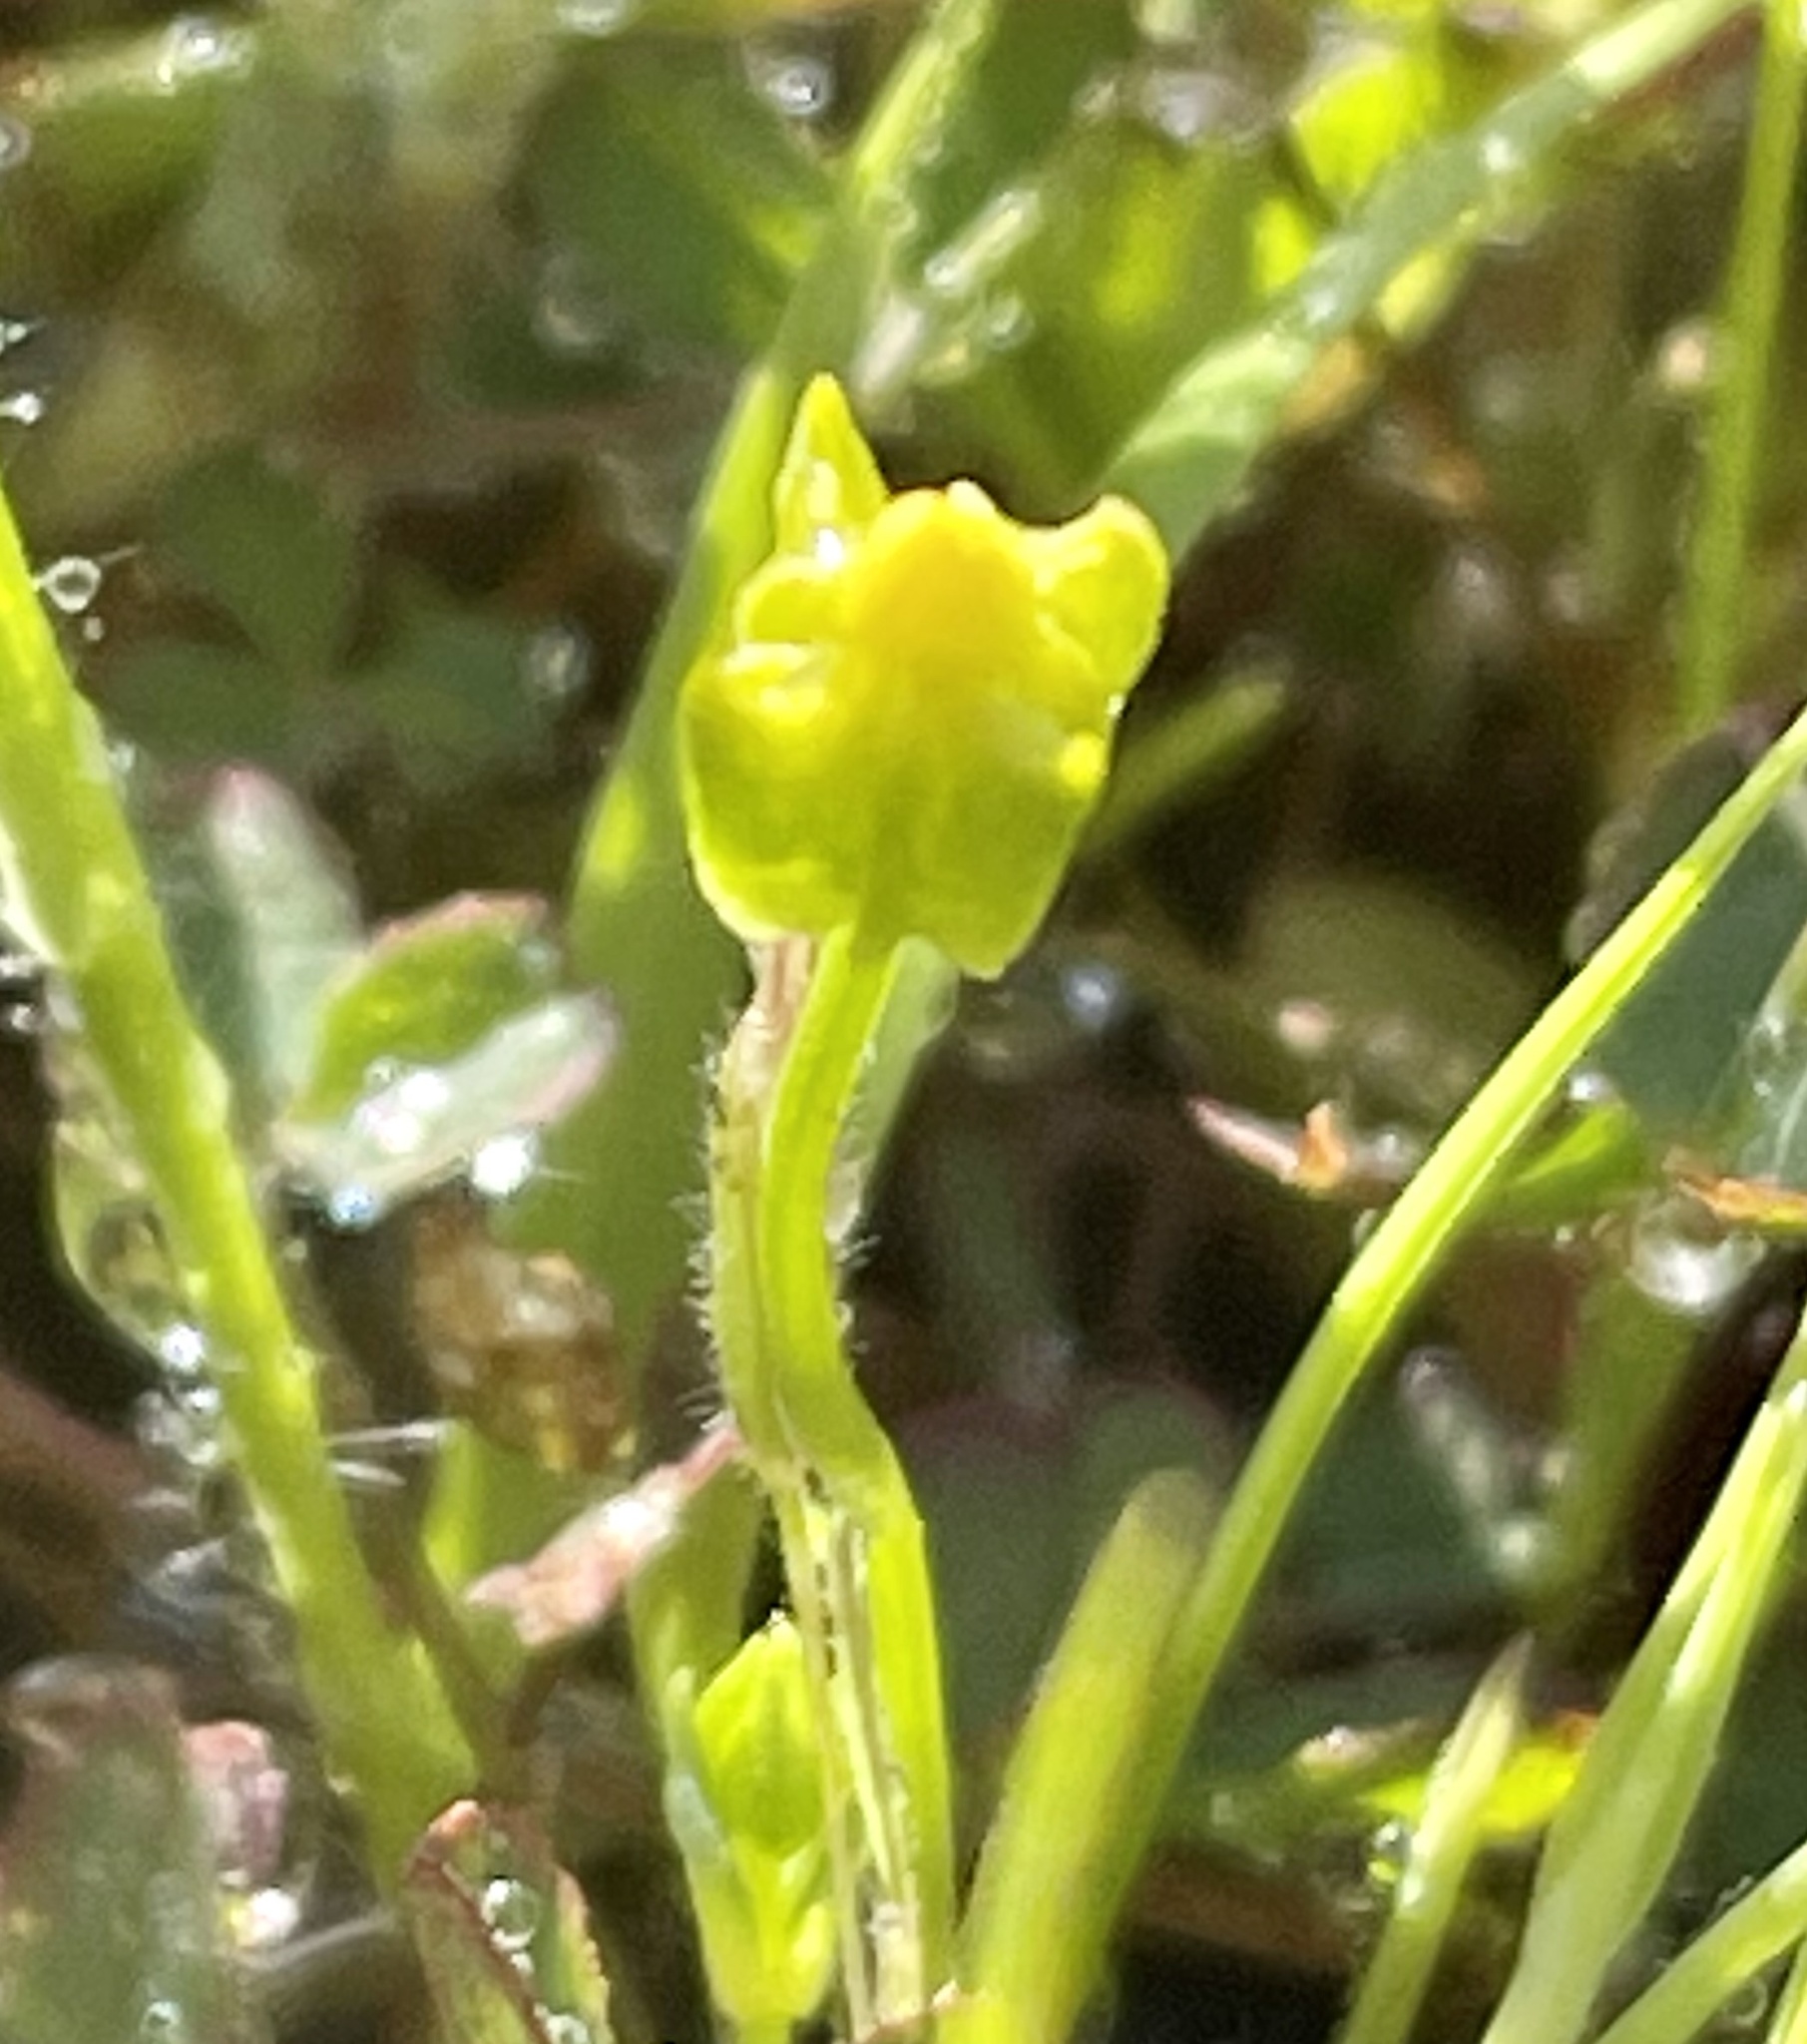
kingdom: Plantae
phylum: Tracheophyta
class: Magnoliopsida
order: Gentianales
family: Gentianaceae
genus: Microcala
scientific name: Microcala quadrangularis
